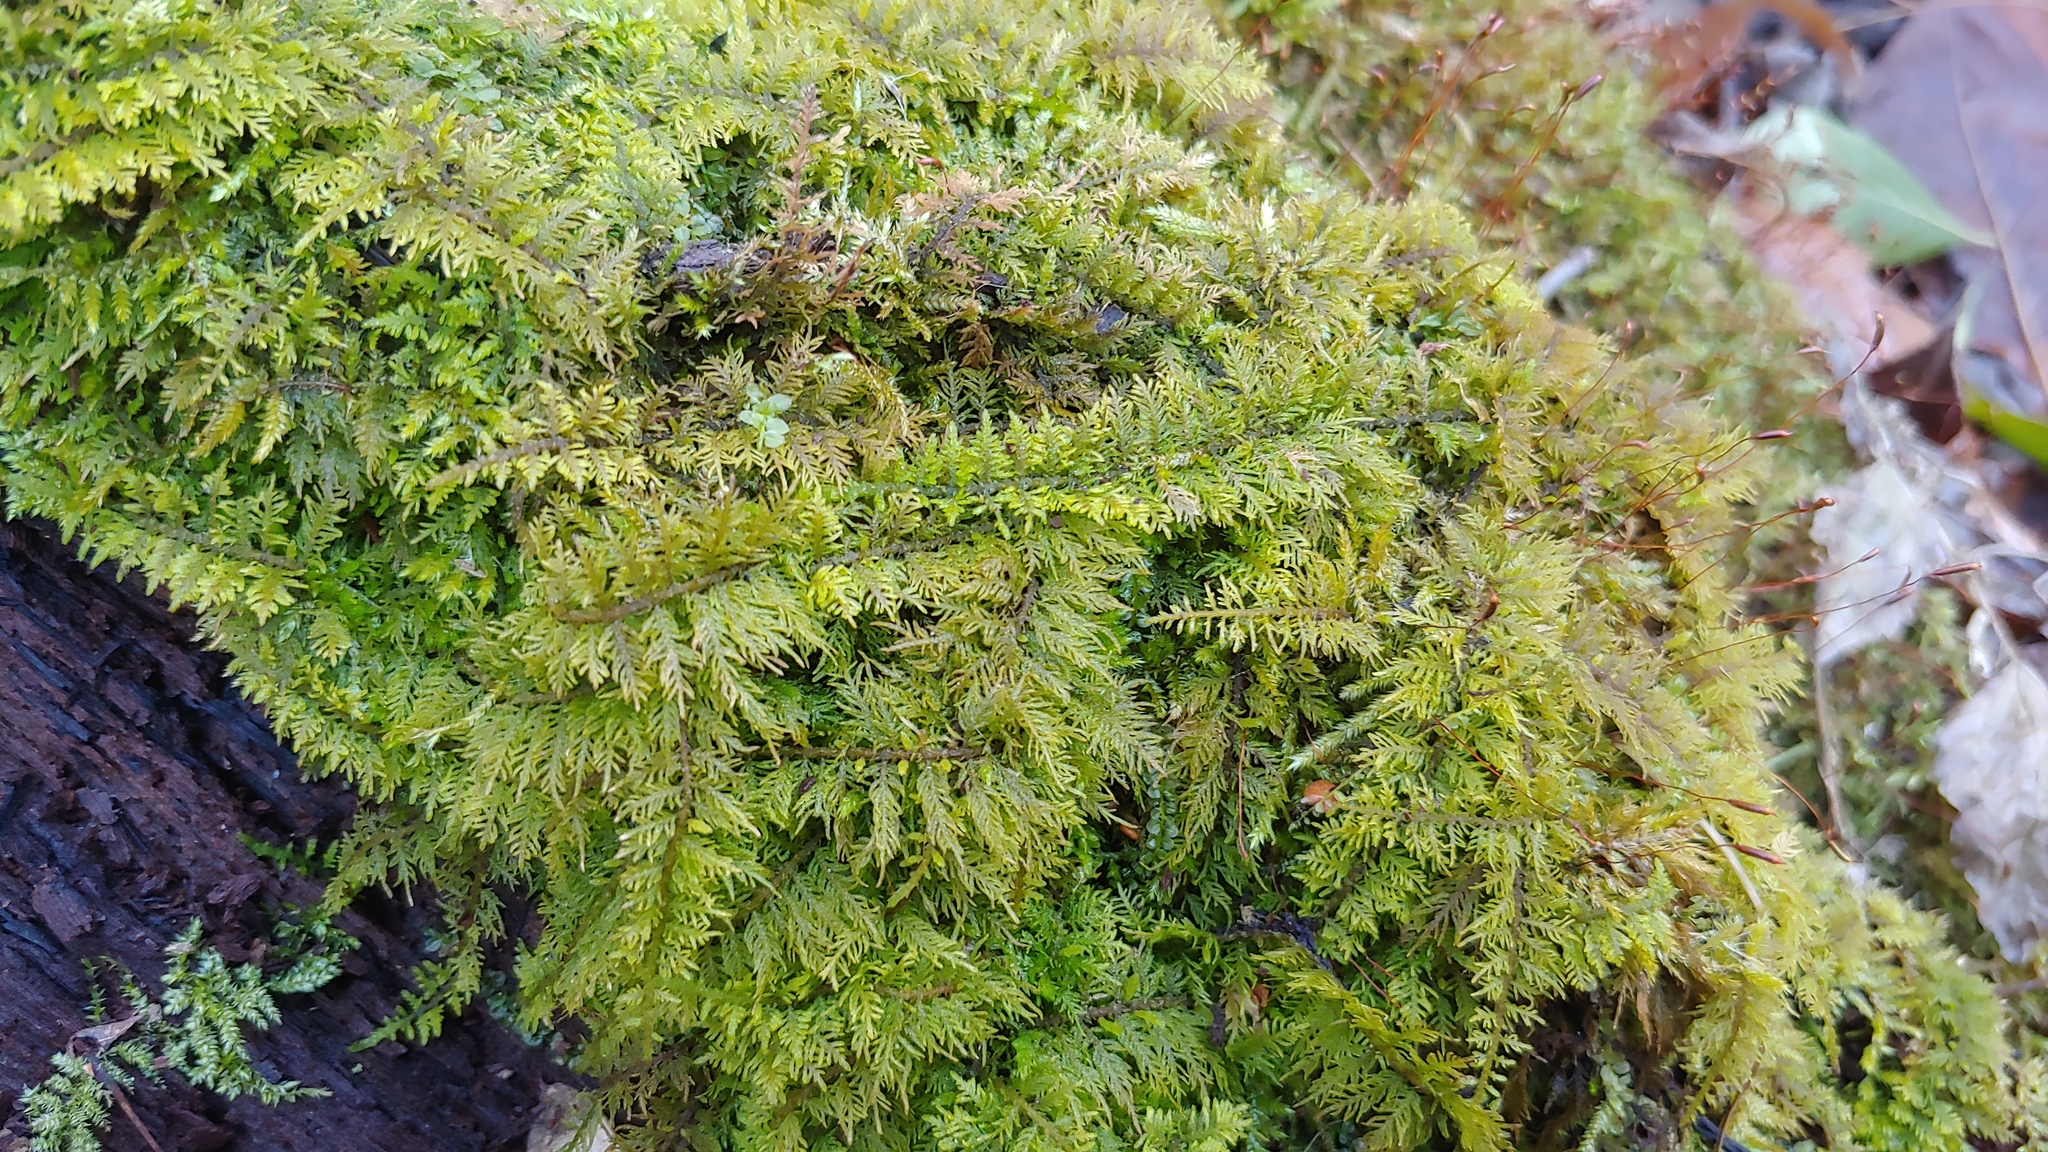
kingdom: Plantae
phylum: Bryophyta
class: Bryopsida
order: Hypnales
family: Thuidiaceae
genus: Thuidium
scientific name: Thuidium delicatulum
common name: Delicate fern moss
